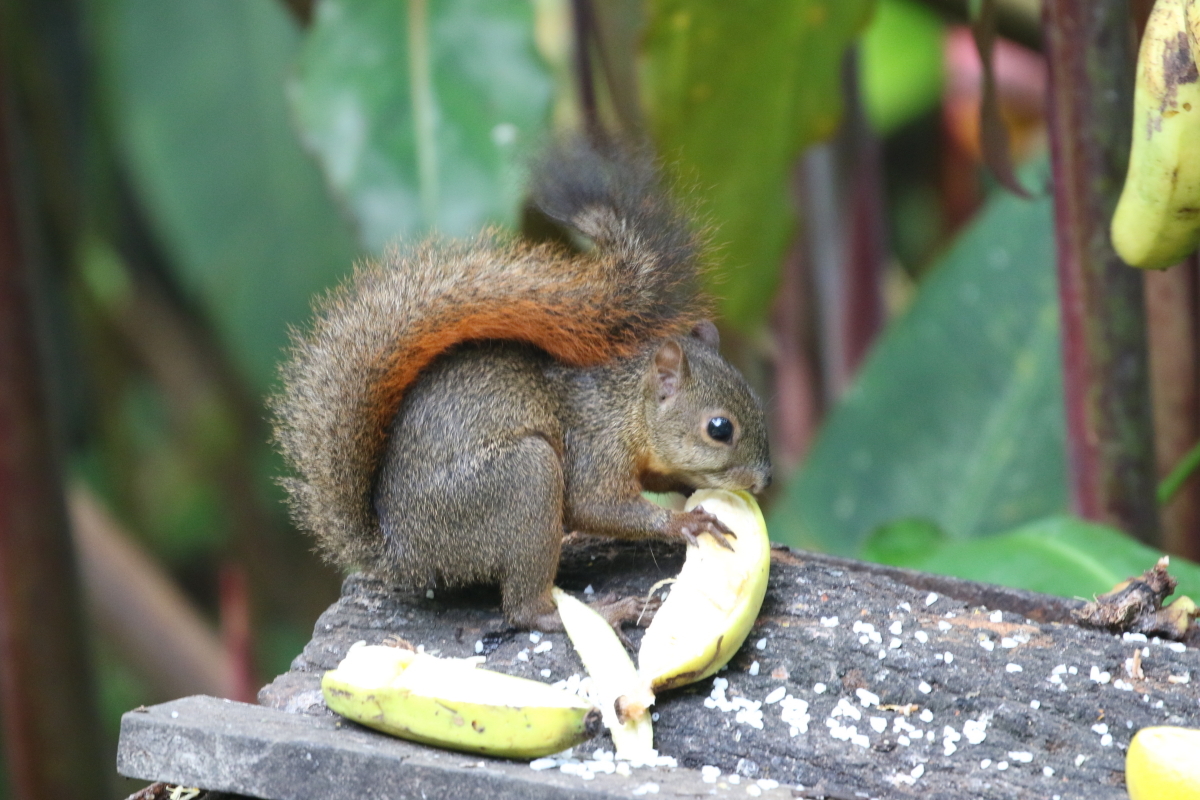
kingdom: Animalia
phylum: Chordata
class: Mammalia
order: Rodentia
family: Sciuridae
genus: Sciurus
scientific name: Sciurus granatensis
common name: Red-tailed squirrel
